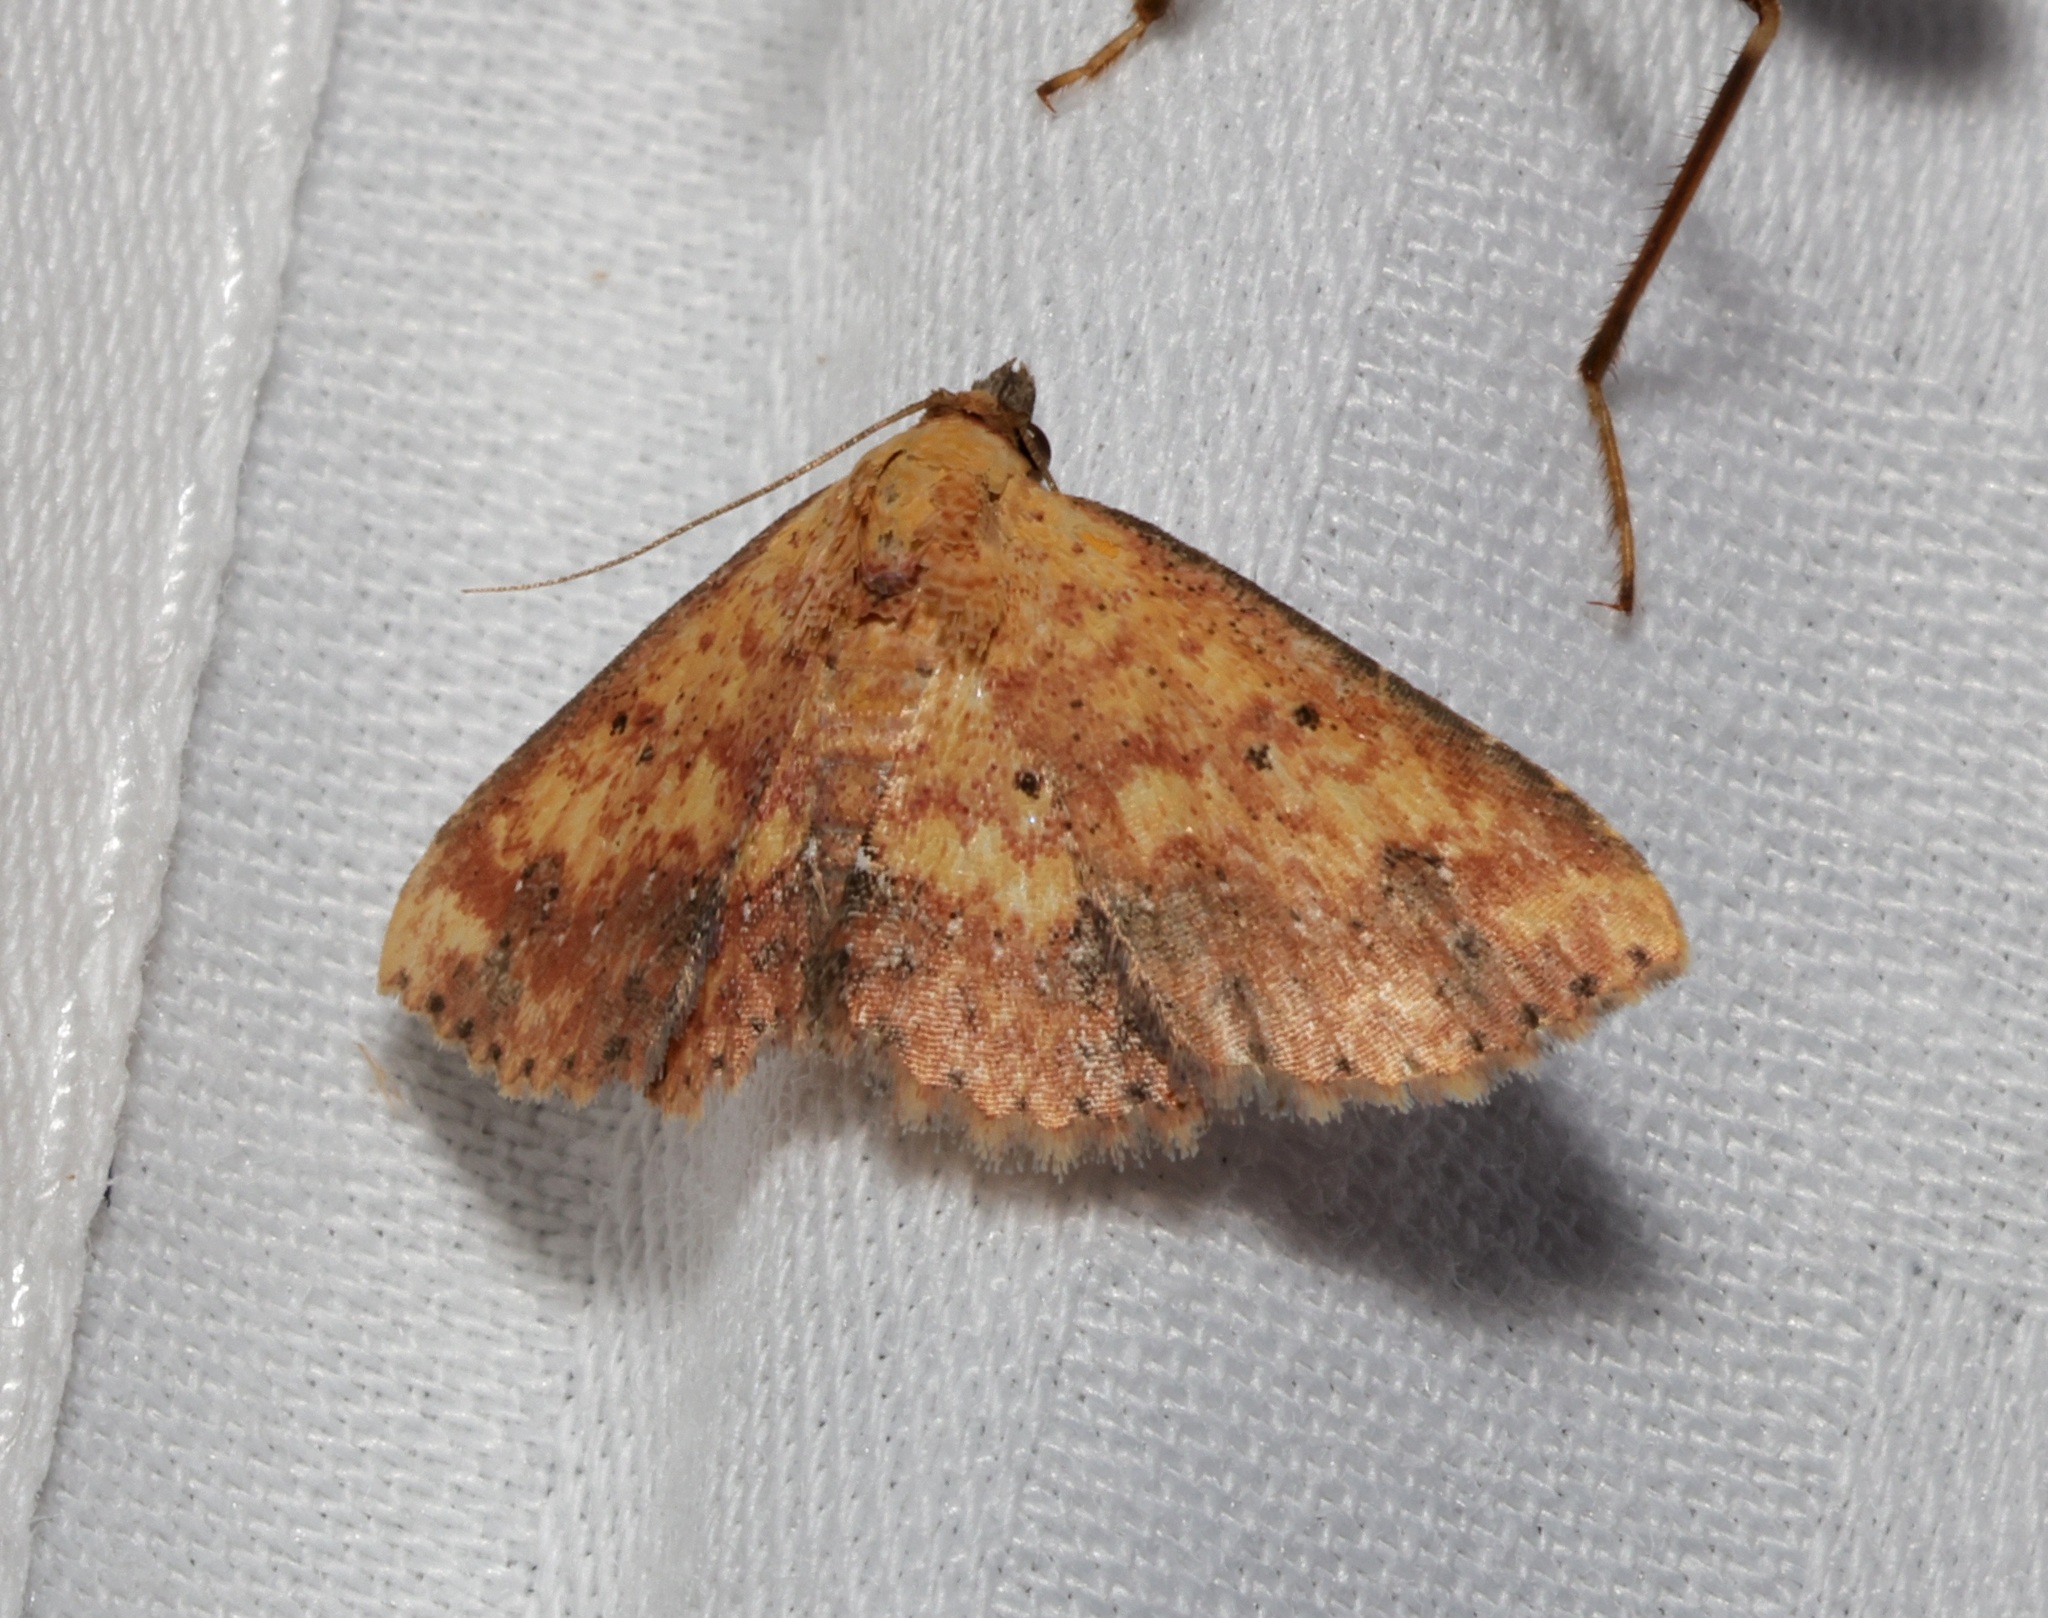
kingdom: Animalia
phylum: Arthropoda
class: Insecta
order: Lepidoptera
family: Noctuidae
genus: Cerynea
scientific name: Cerynea ustula
